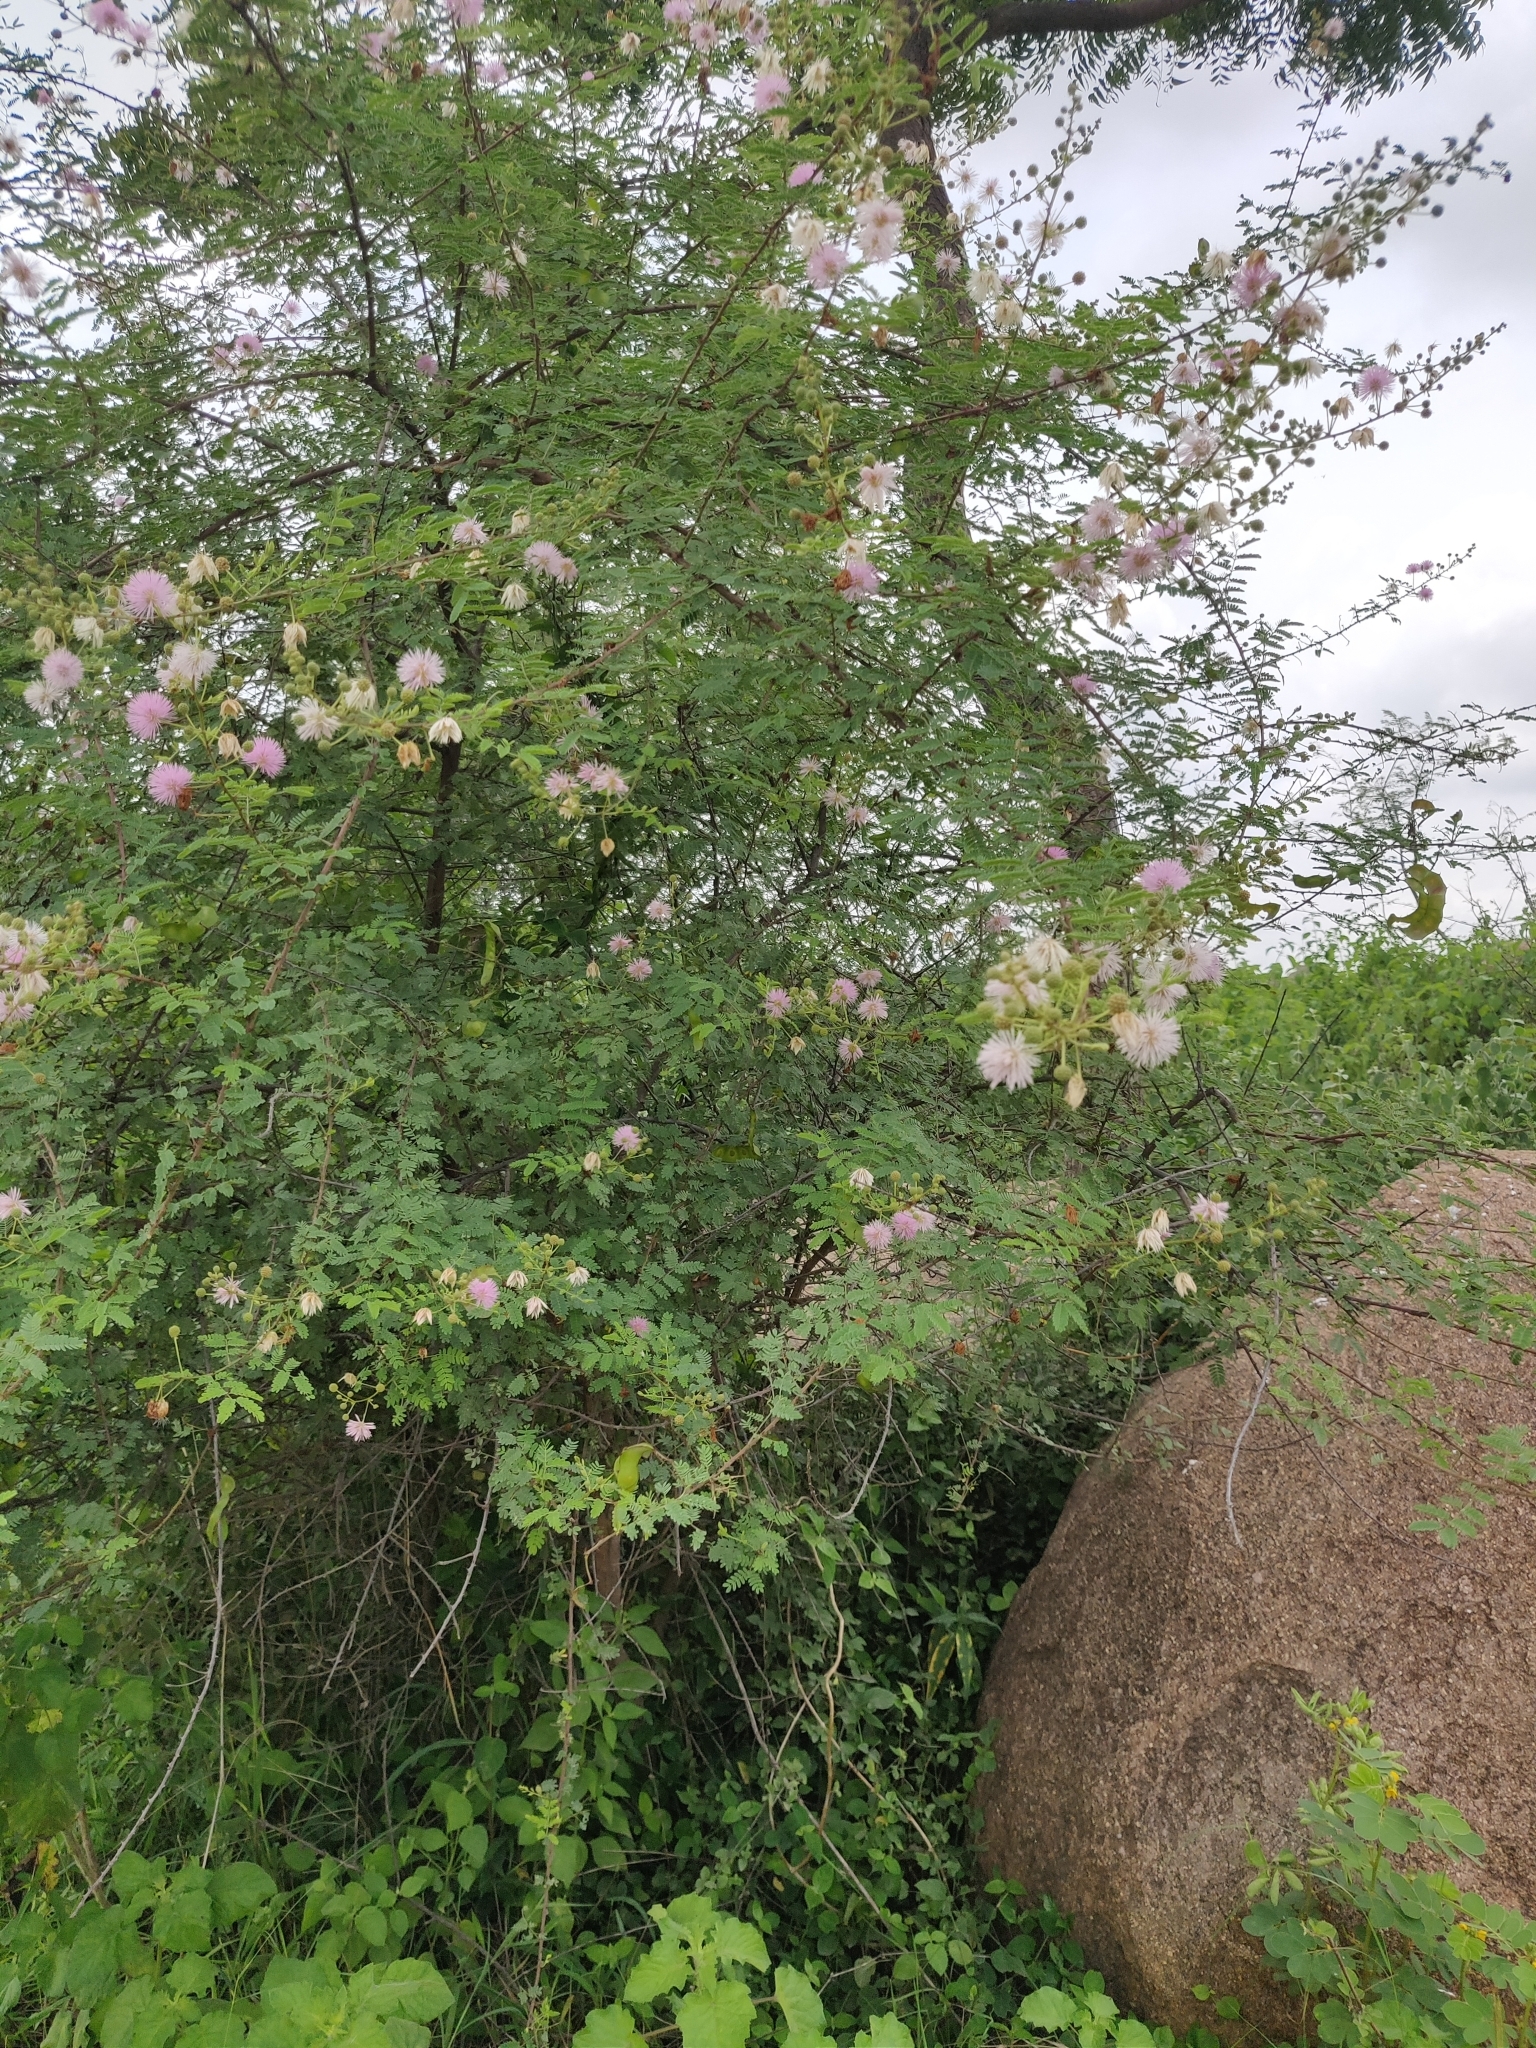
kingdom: Plantae
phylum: Tracheophyta
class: Magnoliopsida
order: Fabales
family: Fabaceae
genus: Mimosa
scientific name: Mimosa borealis
